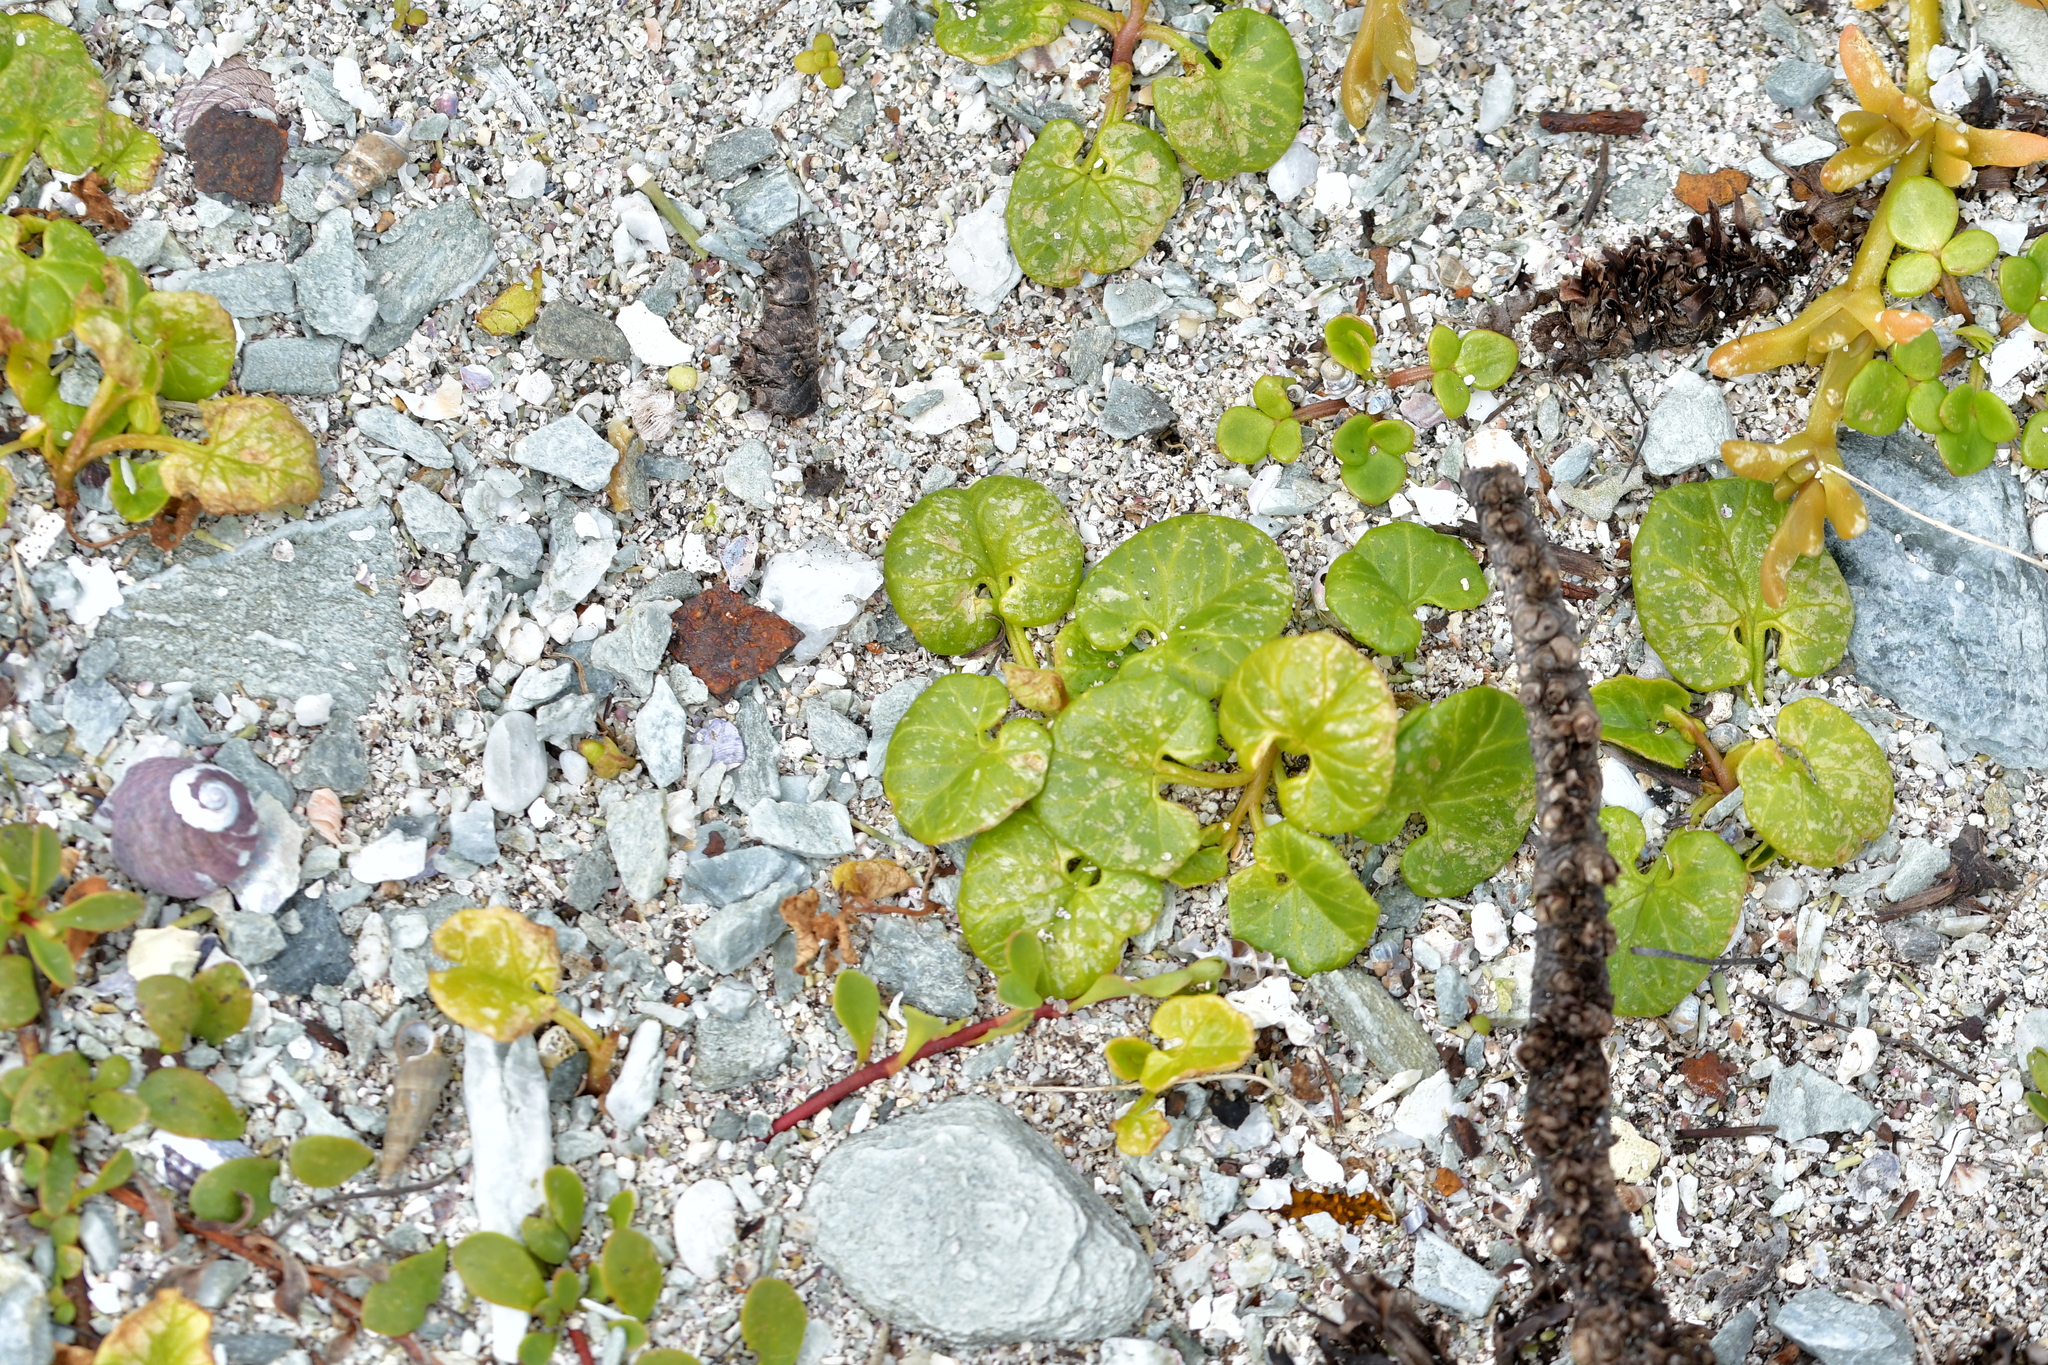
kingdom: Plantae
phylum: Tracheophyta
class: Magnoliopsida
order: Solanales
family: Convolvulaceae
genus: Calystegia
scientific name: Calystegia soldanella
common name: Sea bindweed
